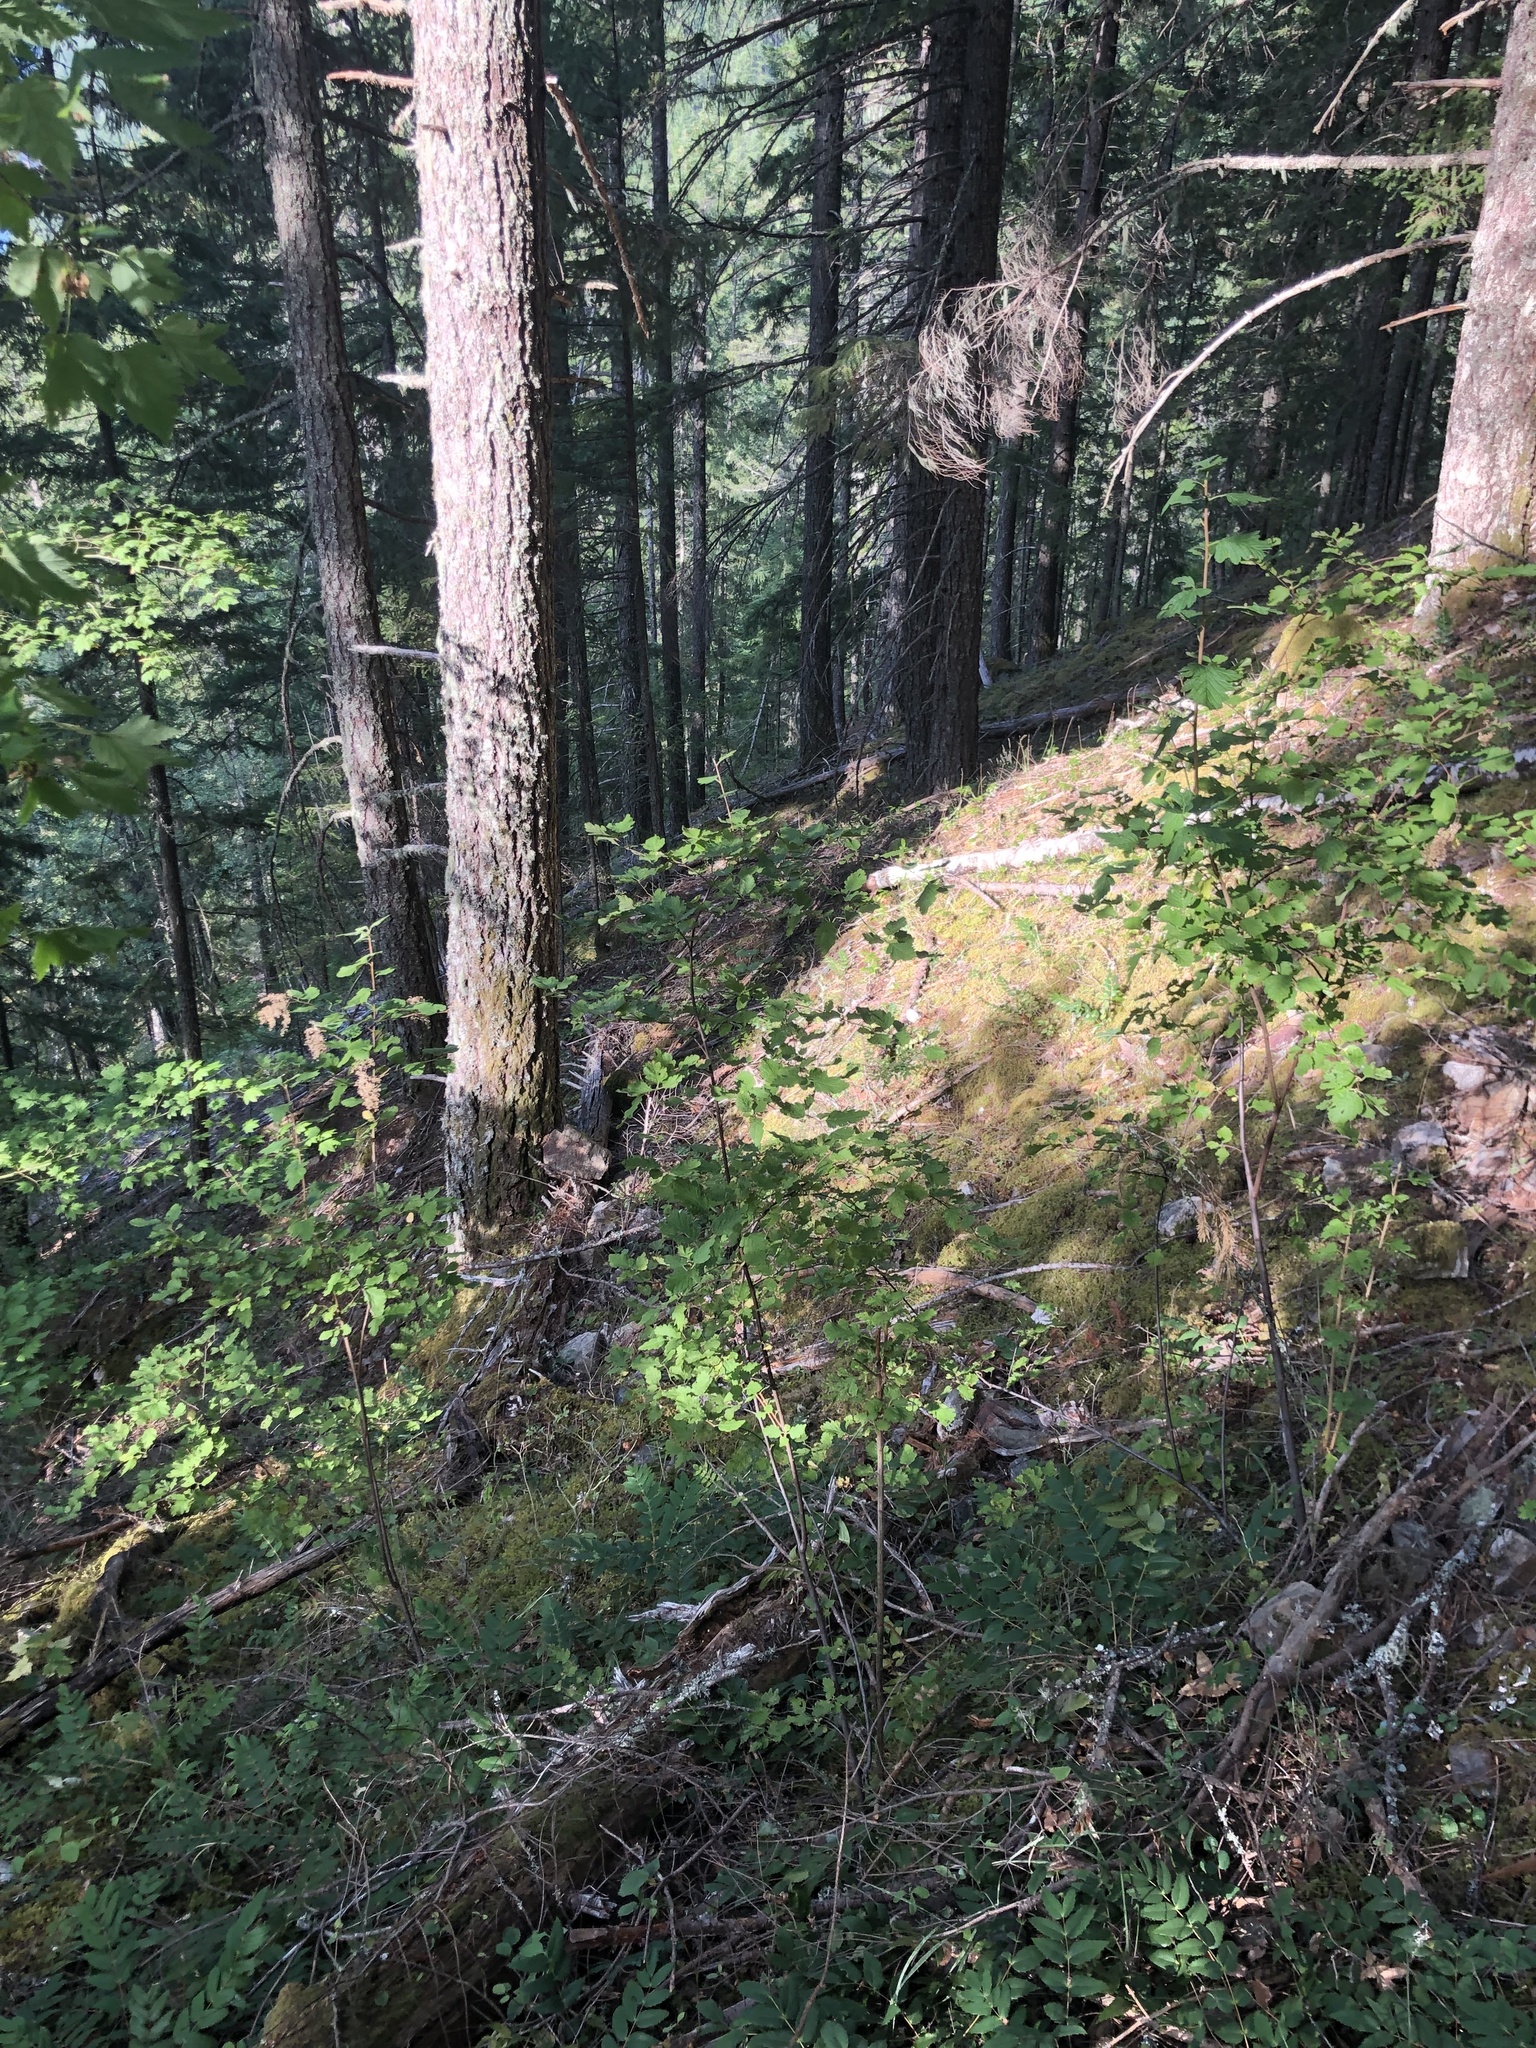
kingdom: Plantae
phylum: Tracheophyta
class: Magnoliopsida
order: Rosales
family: Rosaceae
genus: Holodiscus
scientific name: Holodiscus discolor
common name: Oceanspray
